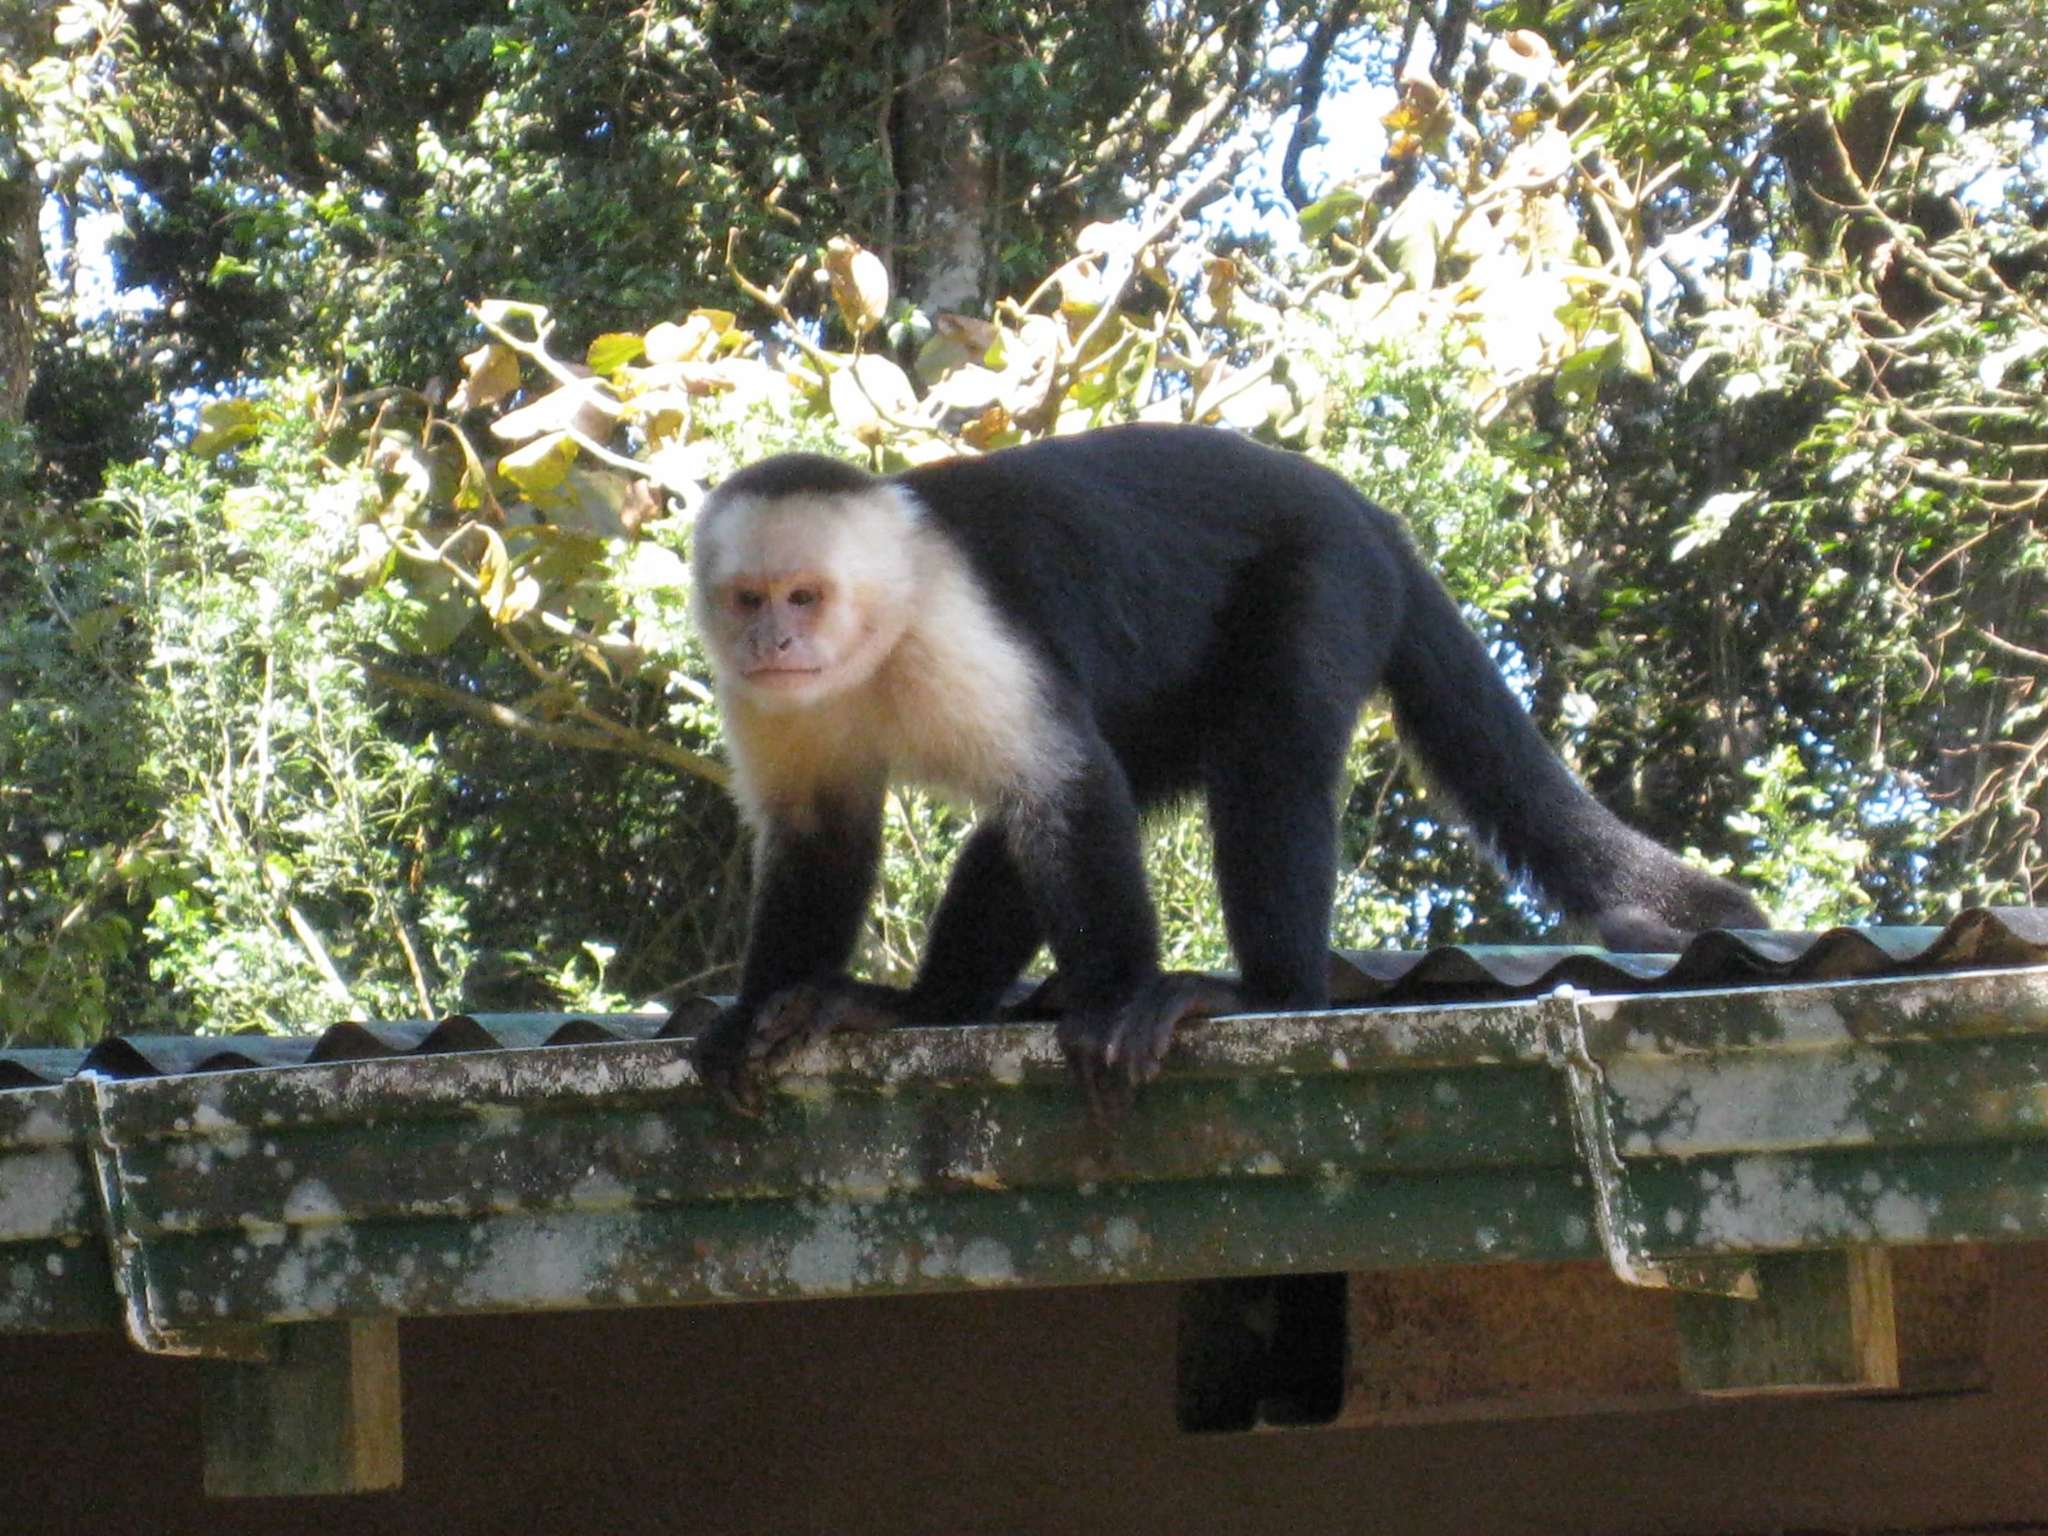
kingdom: Animalia
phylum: Chordata
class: Mammalia
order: Primates
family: Cebidae
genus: Cebus
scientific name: Cebus imitator
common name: Panamanian white-faced capuchin
